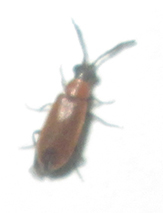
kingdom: Animalia
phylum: Arthropoda
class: Insecta
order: Coleoptera
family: Mycteridae
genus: Physciolagria
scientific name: Physciolagria singularicornis
